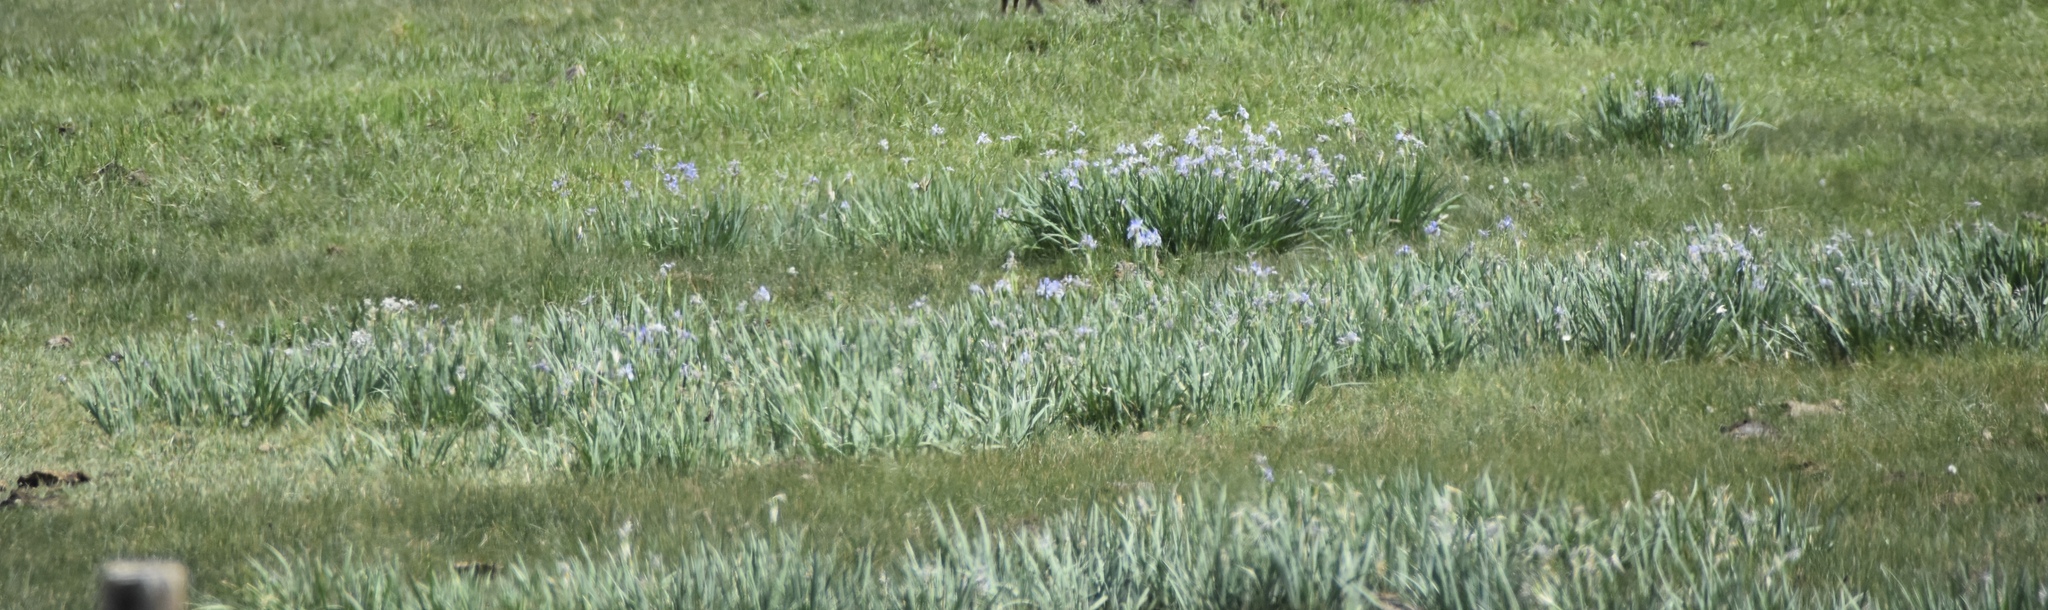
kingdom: Plantae
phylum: Tracheophyta
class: Liliopsida
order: Asparagales
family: Iridaceae
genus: Iris
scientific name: Iris missouriensis
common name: Rocky mountain iris
